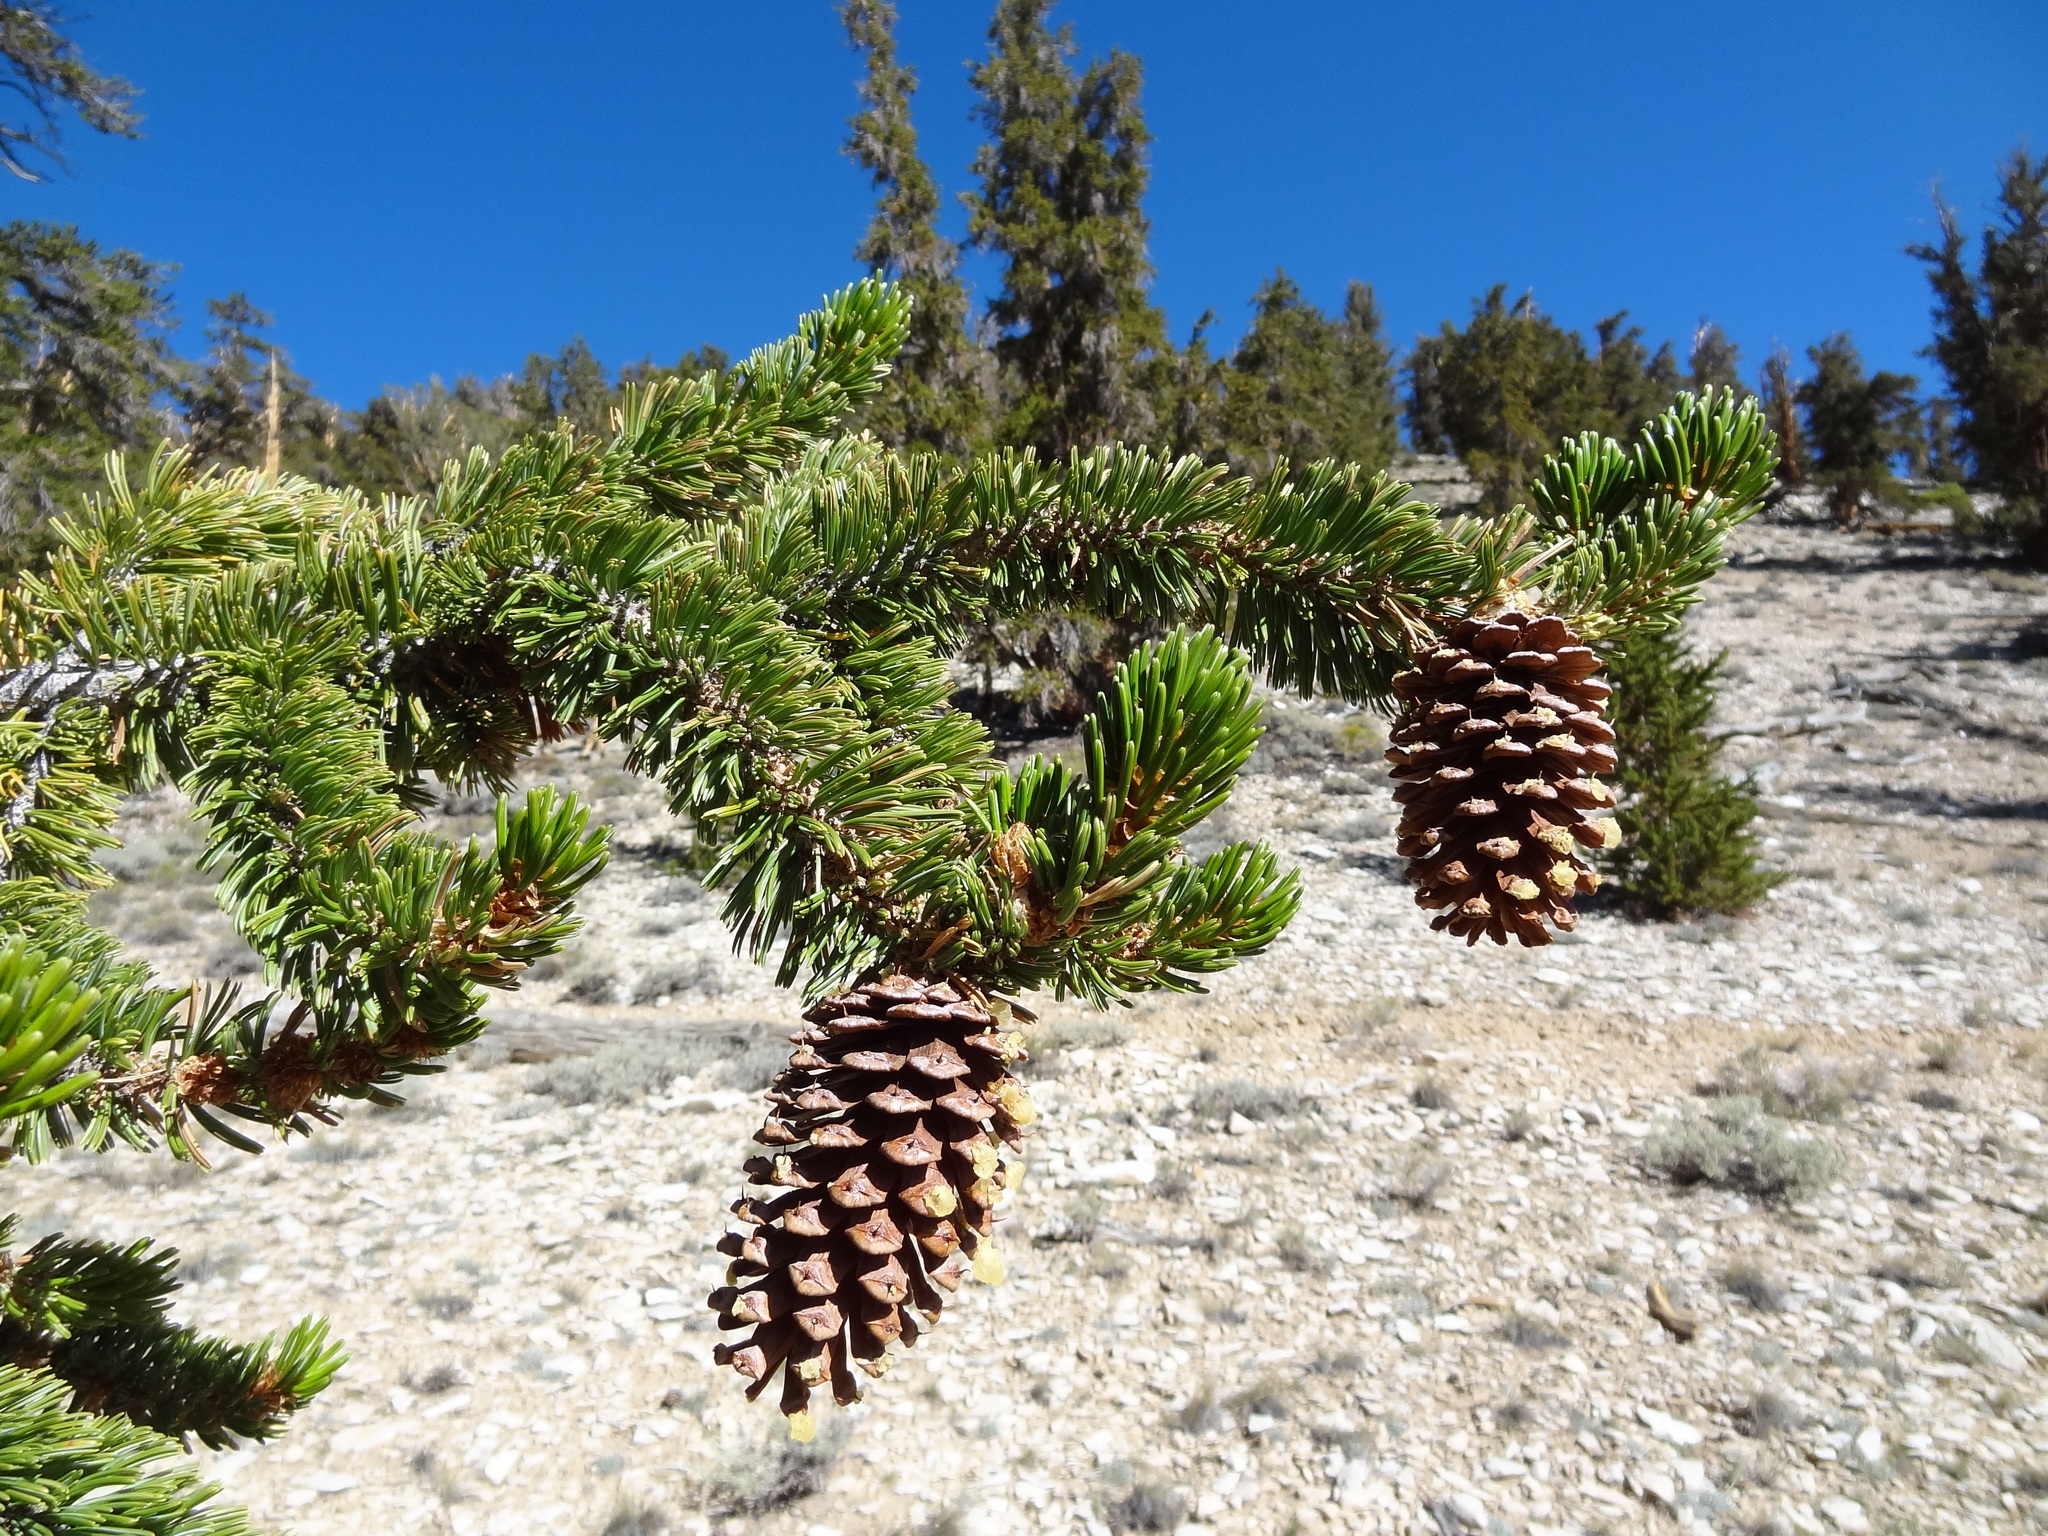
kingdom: Plantae
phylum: Tracheophyta
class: Pinopsida
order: Pinales
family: Pinaceae
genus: Pinus
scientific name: Pinus longaeva
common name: Intermountain bristlecone pine
